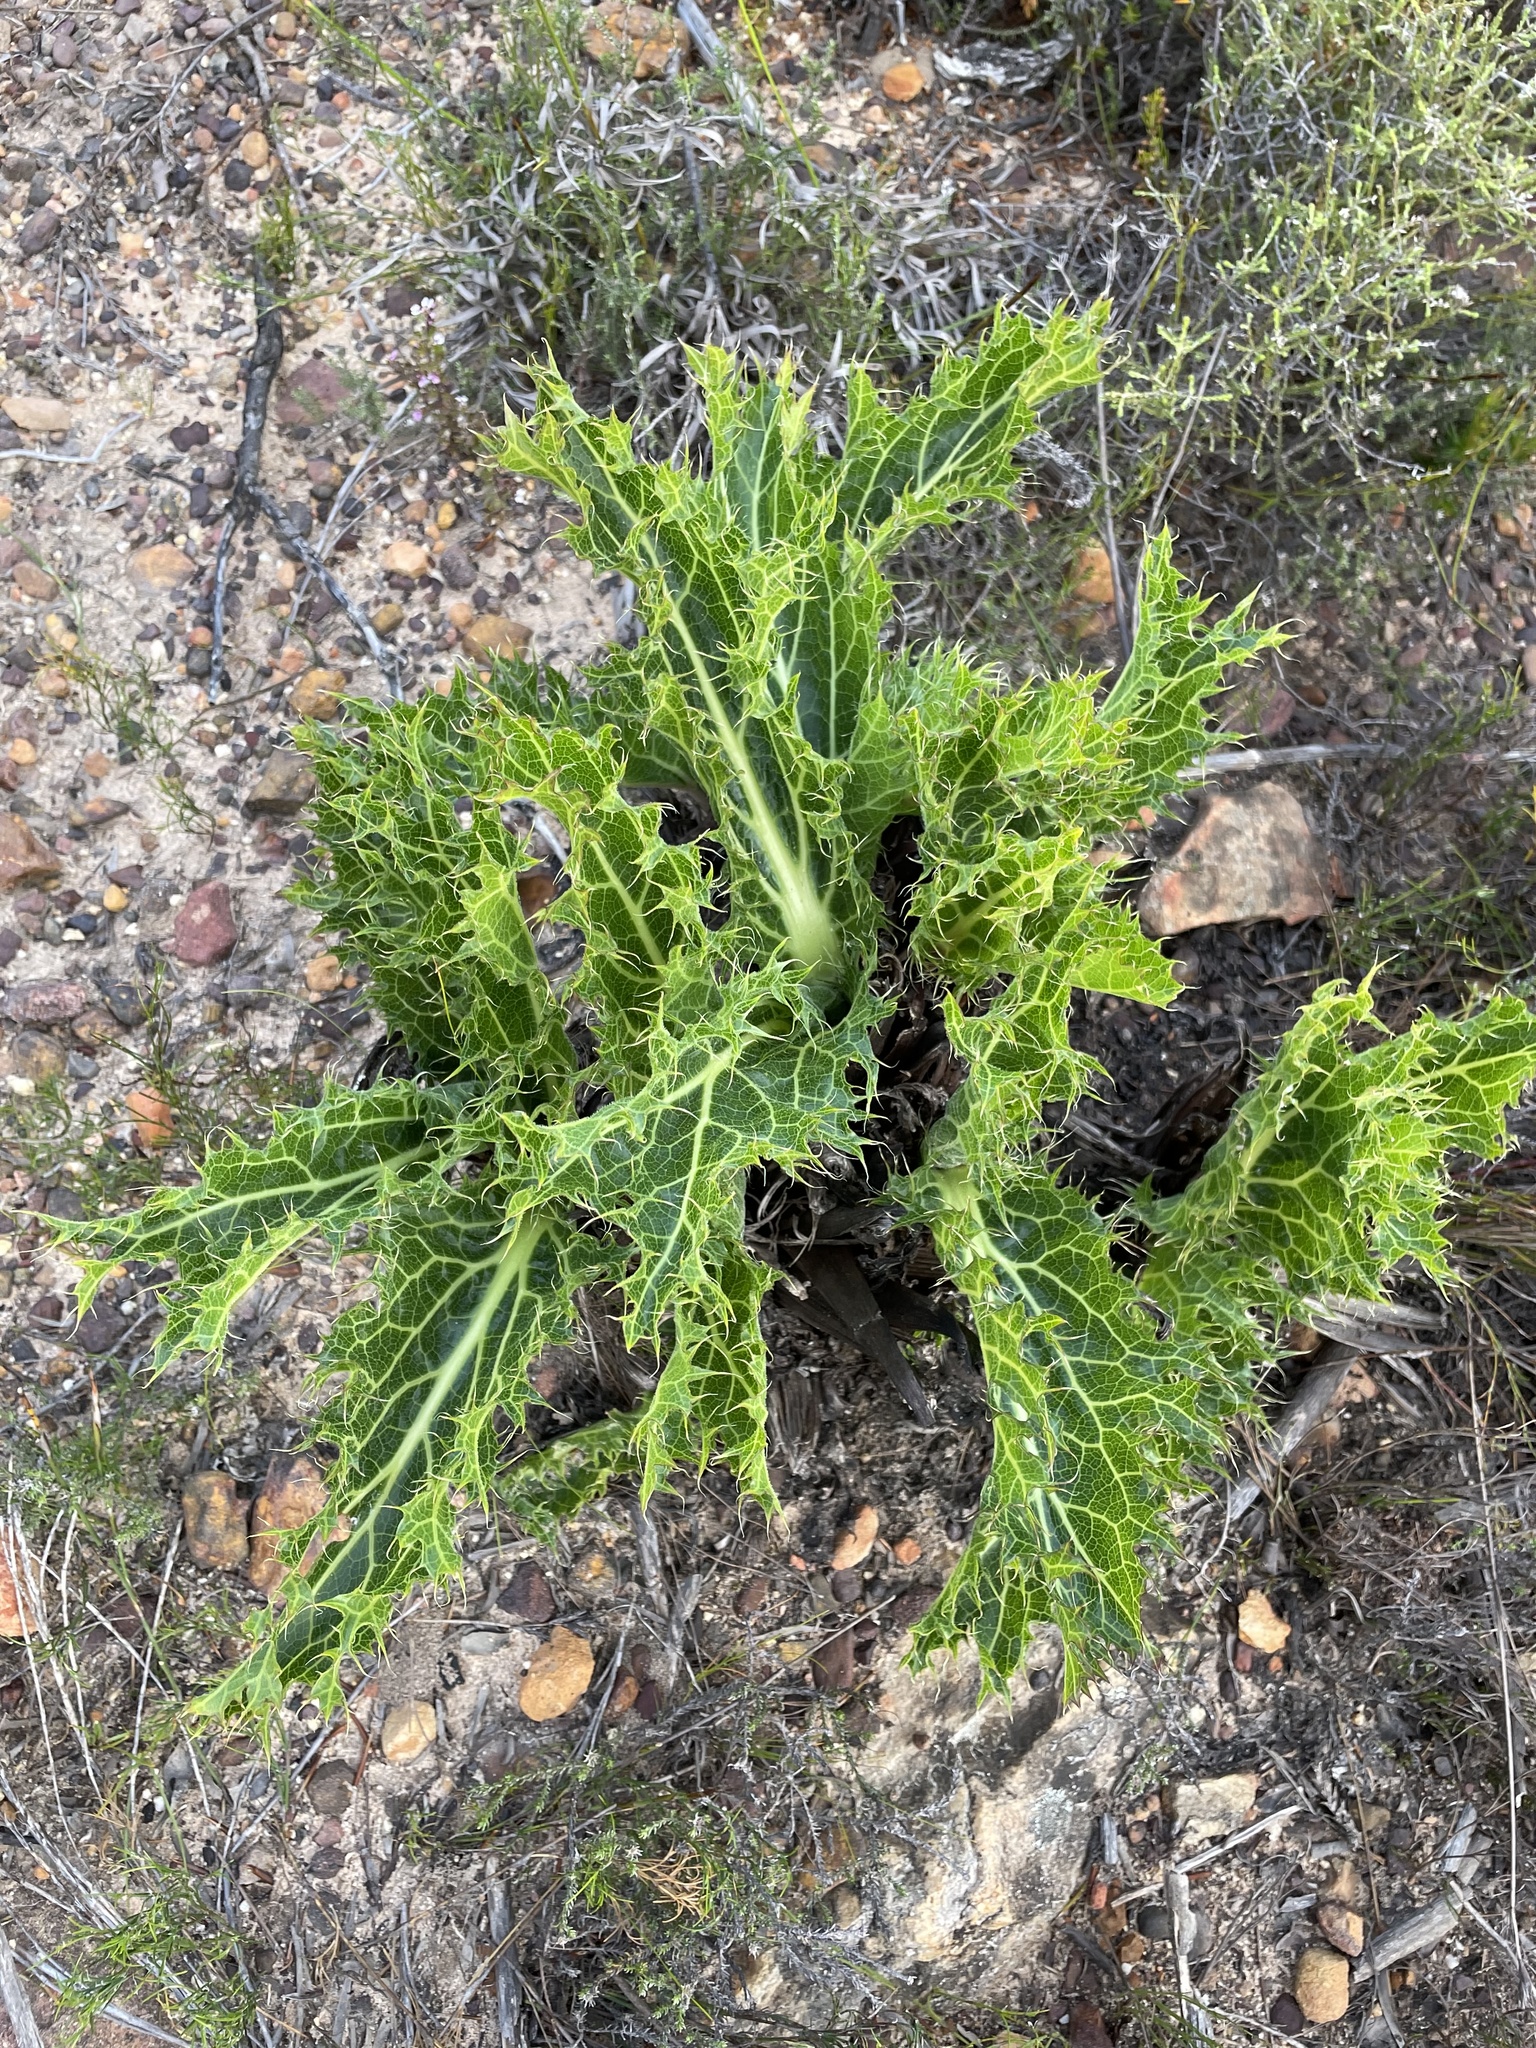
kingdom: Plantae
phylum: Tracheophyta
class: Magnoliopsida
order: Apiales
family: Apiaceae
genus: Lichtensteinia
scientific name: Lichtensteinia lacera
